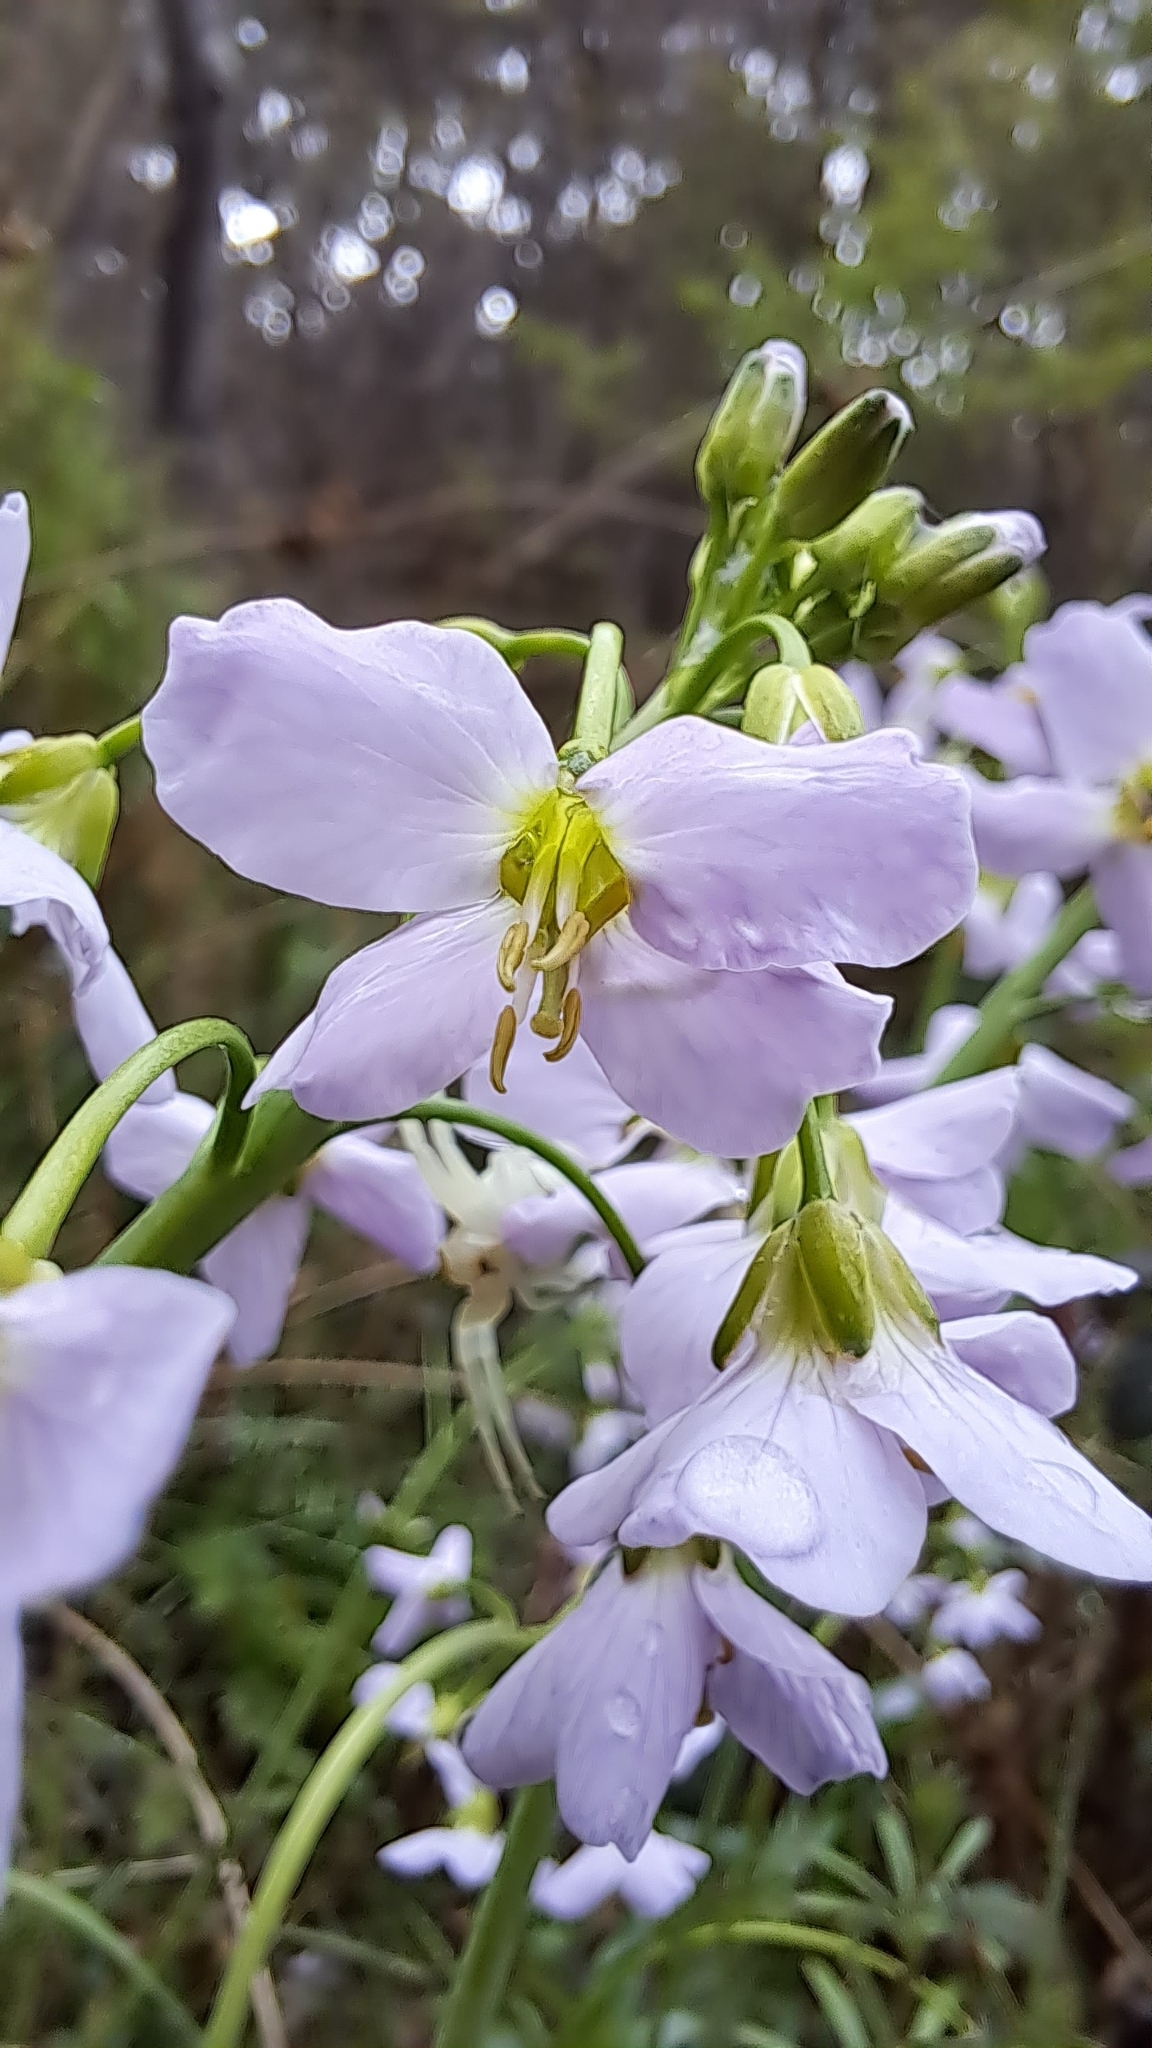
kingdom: Plantae
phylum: Tracheophyta
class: Magnoliopsida
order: Brassicales
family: Brassicaceae
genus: Cardamine
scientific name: Cardamine pratensis
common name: Cuckoo flower
